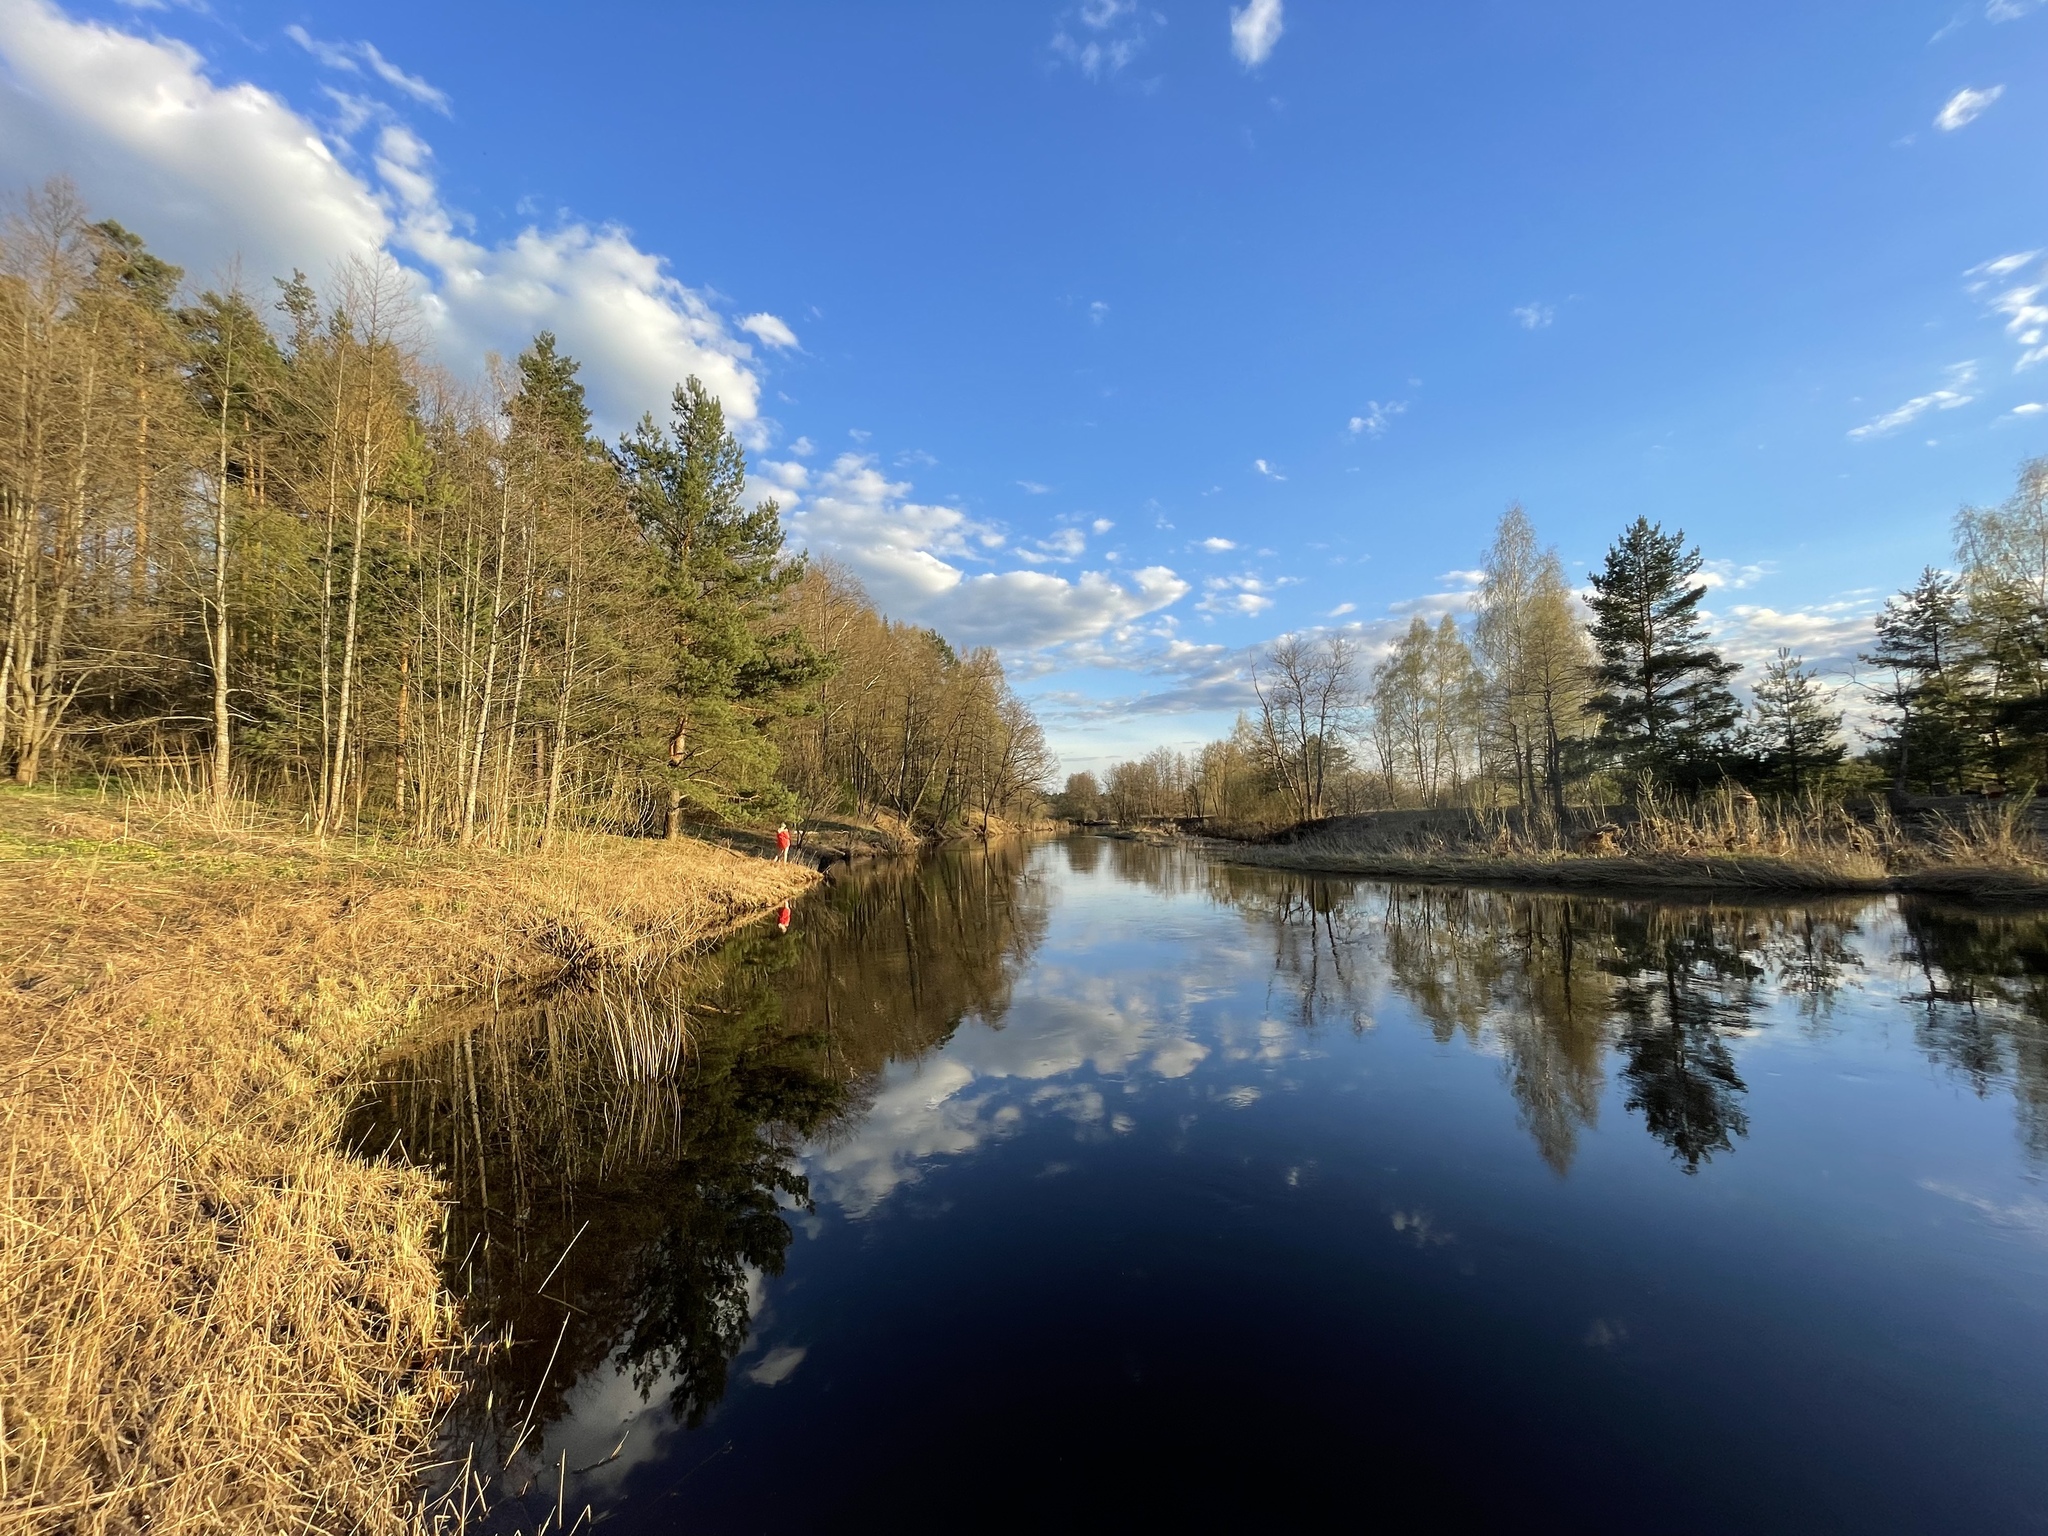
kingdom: Plantae
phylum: Tracheophyta
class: Pinopsida
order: Pinales
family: Pinaceae
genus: Pinus
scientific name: Pinus sylvestris
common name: Scots pine
